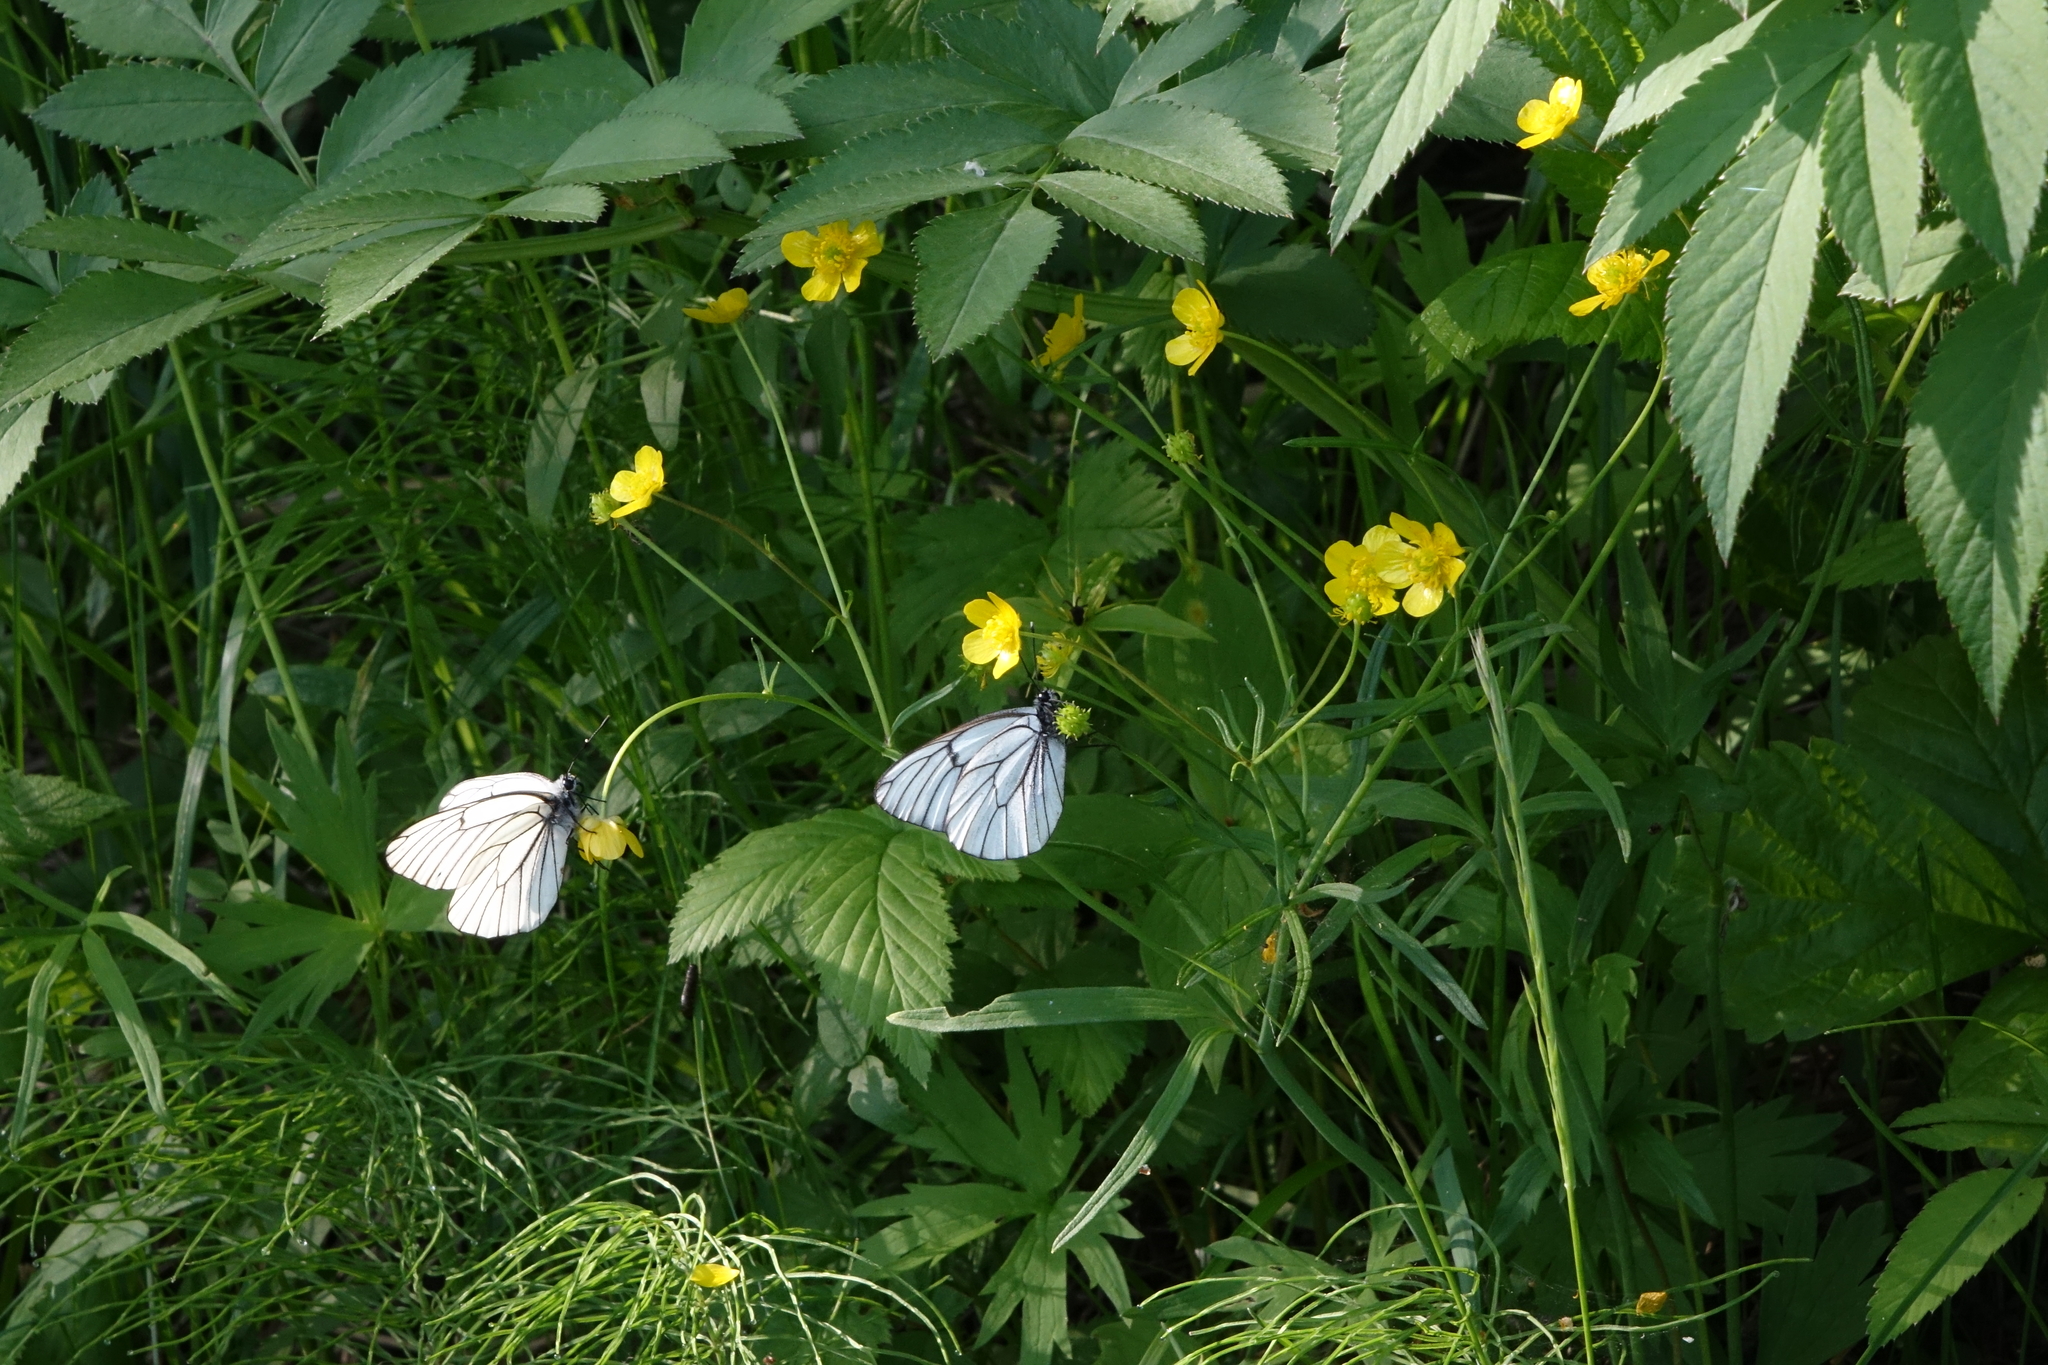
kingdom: Animalia
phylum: Arthropoda
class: Insecta
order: Lepidoptera
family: Pieridae
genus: Aporia
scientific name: Aporia crataegi
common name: Black-veined white
